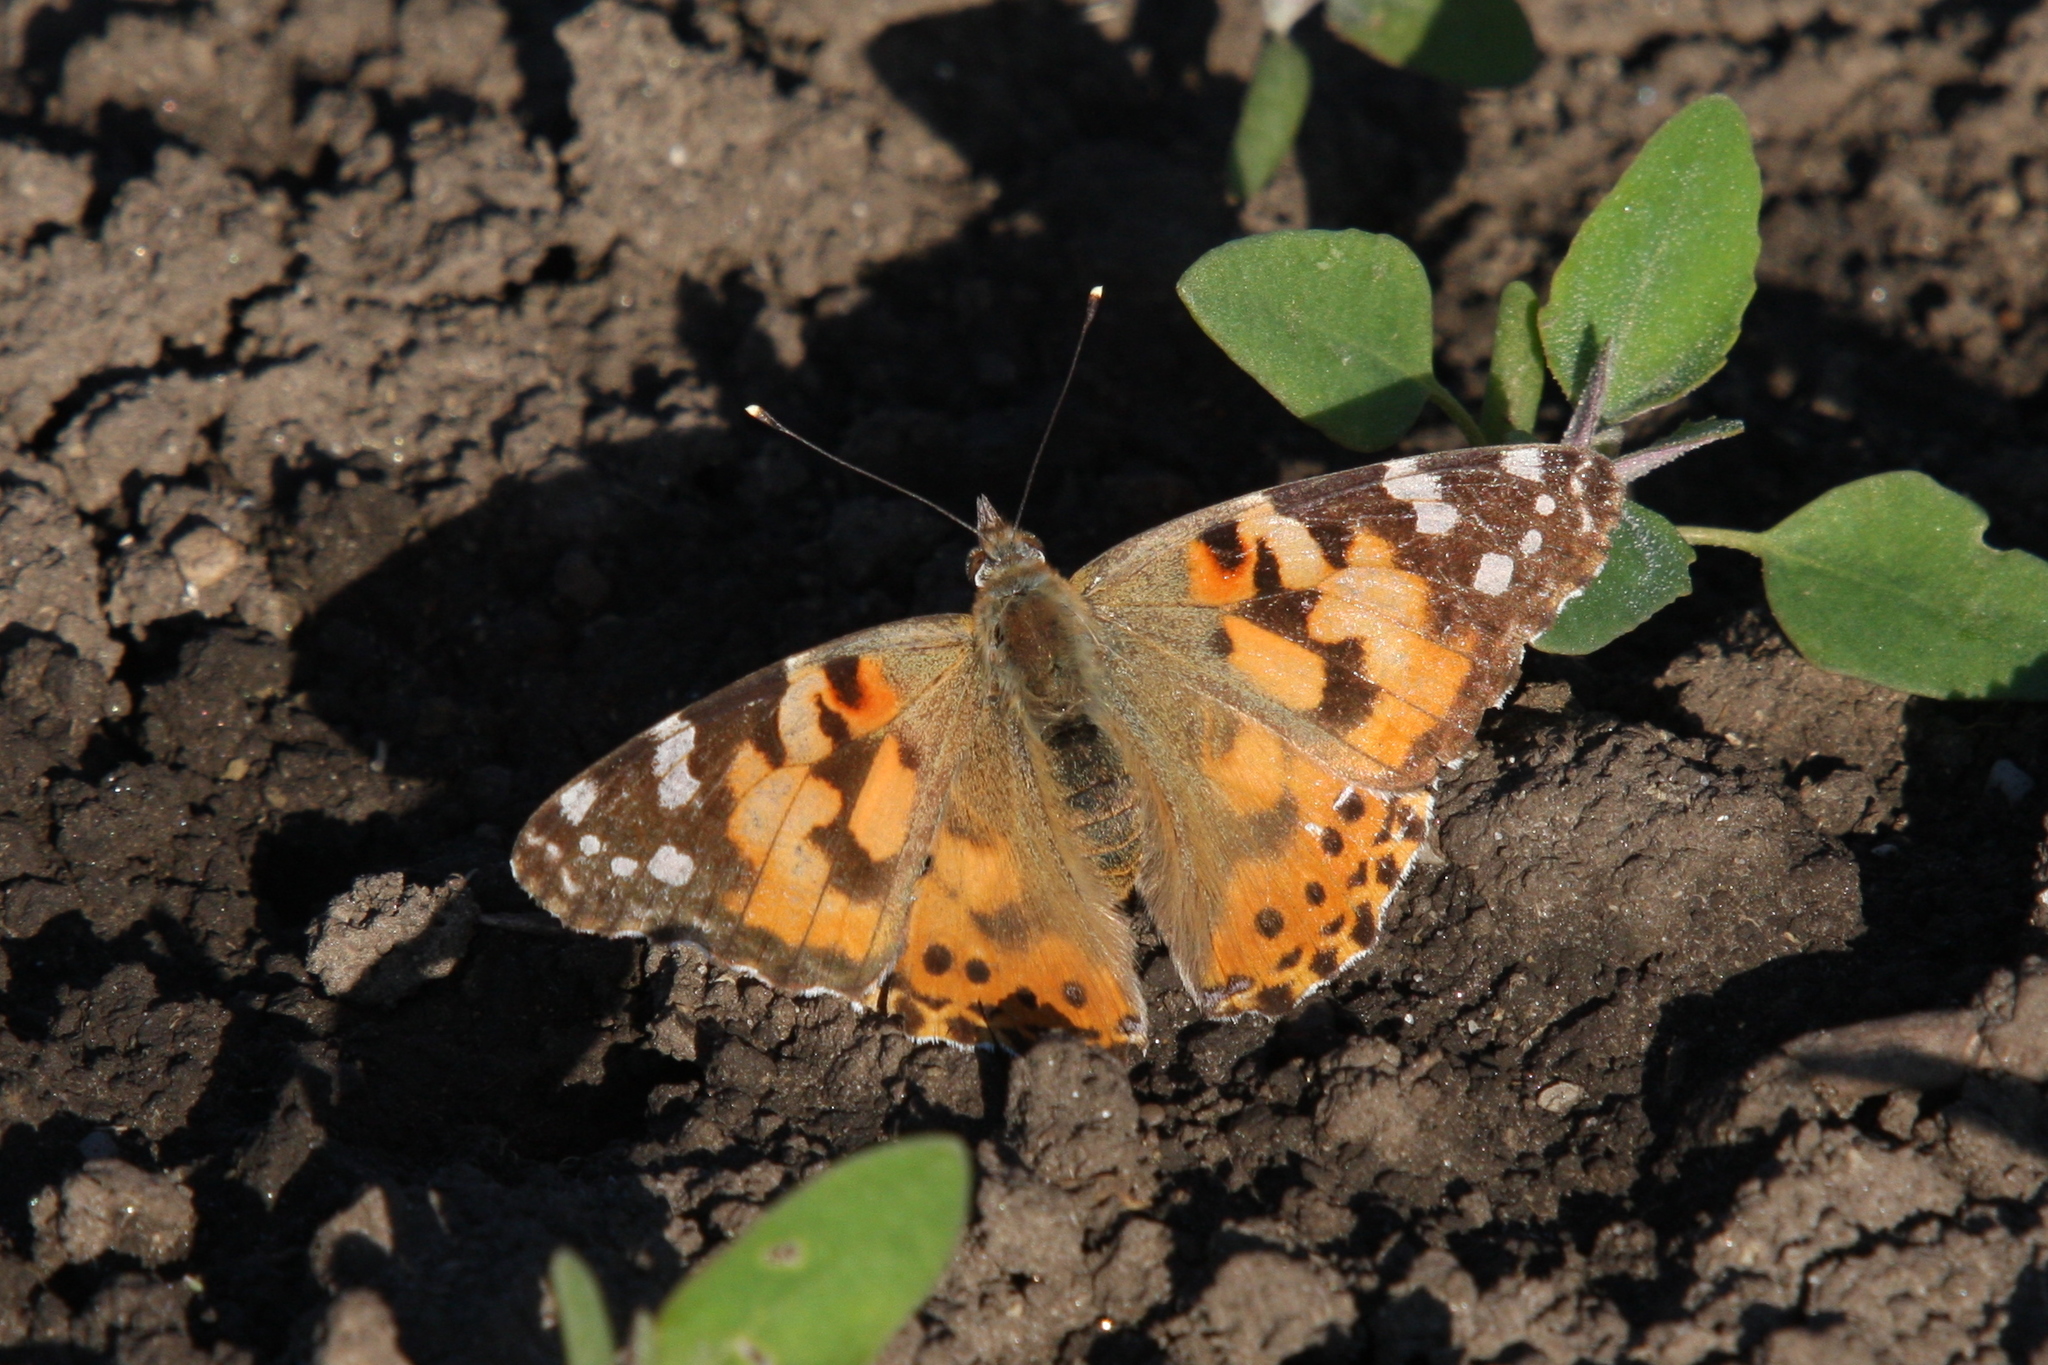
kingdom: Animalia
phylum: Arthropoda
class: Insecta
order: Lepidoptera
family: Nymphalidae
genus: Vanessa
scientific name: Vanessa cardui
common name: Painted lady
